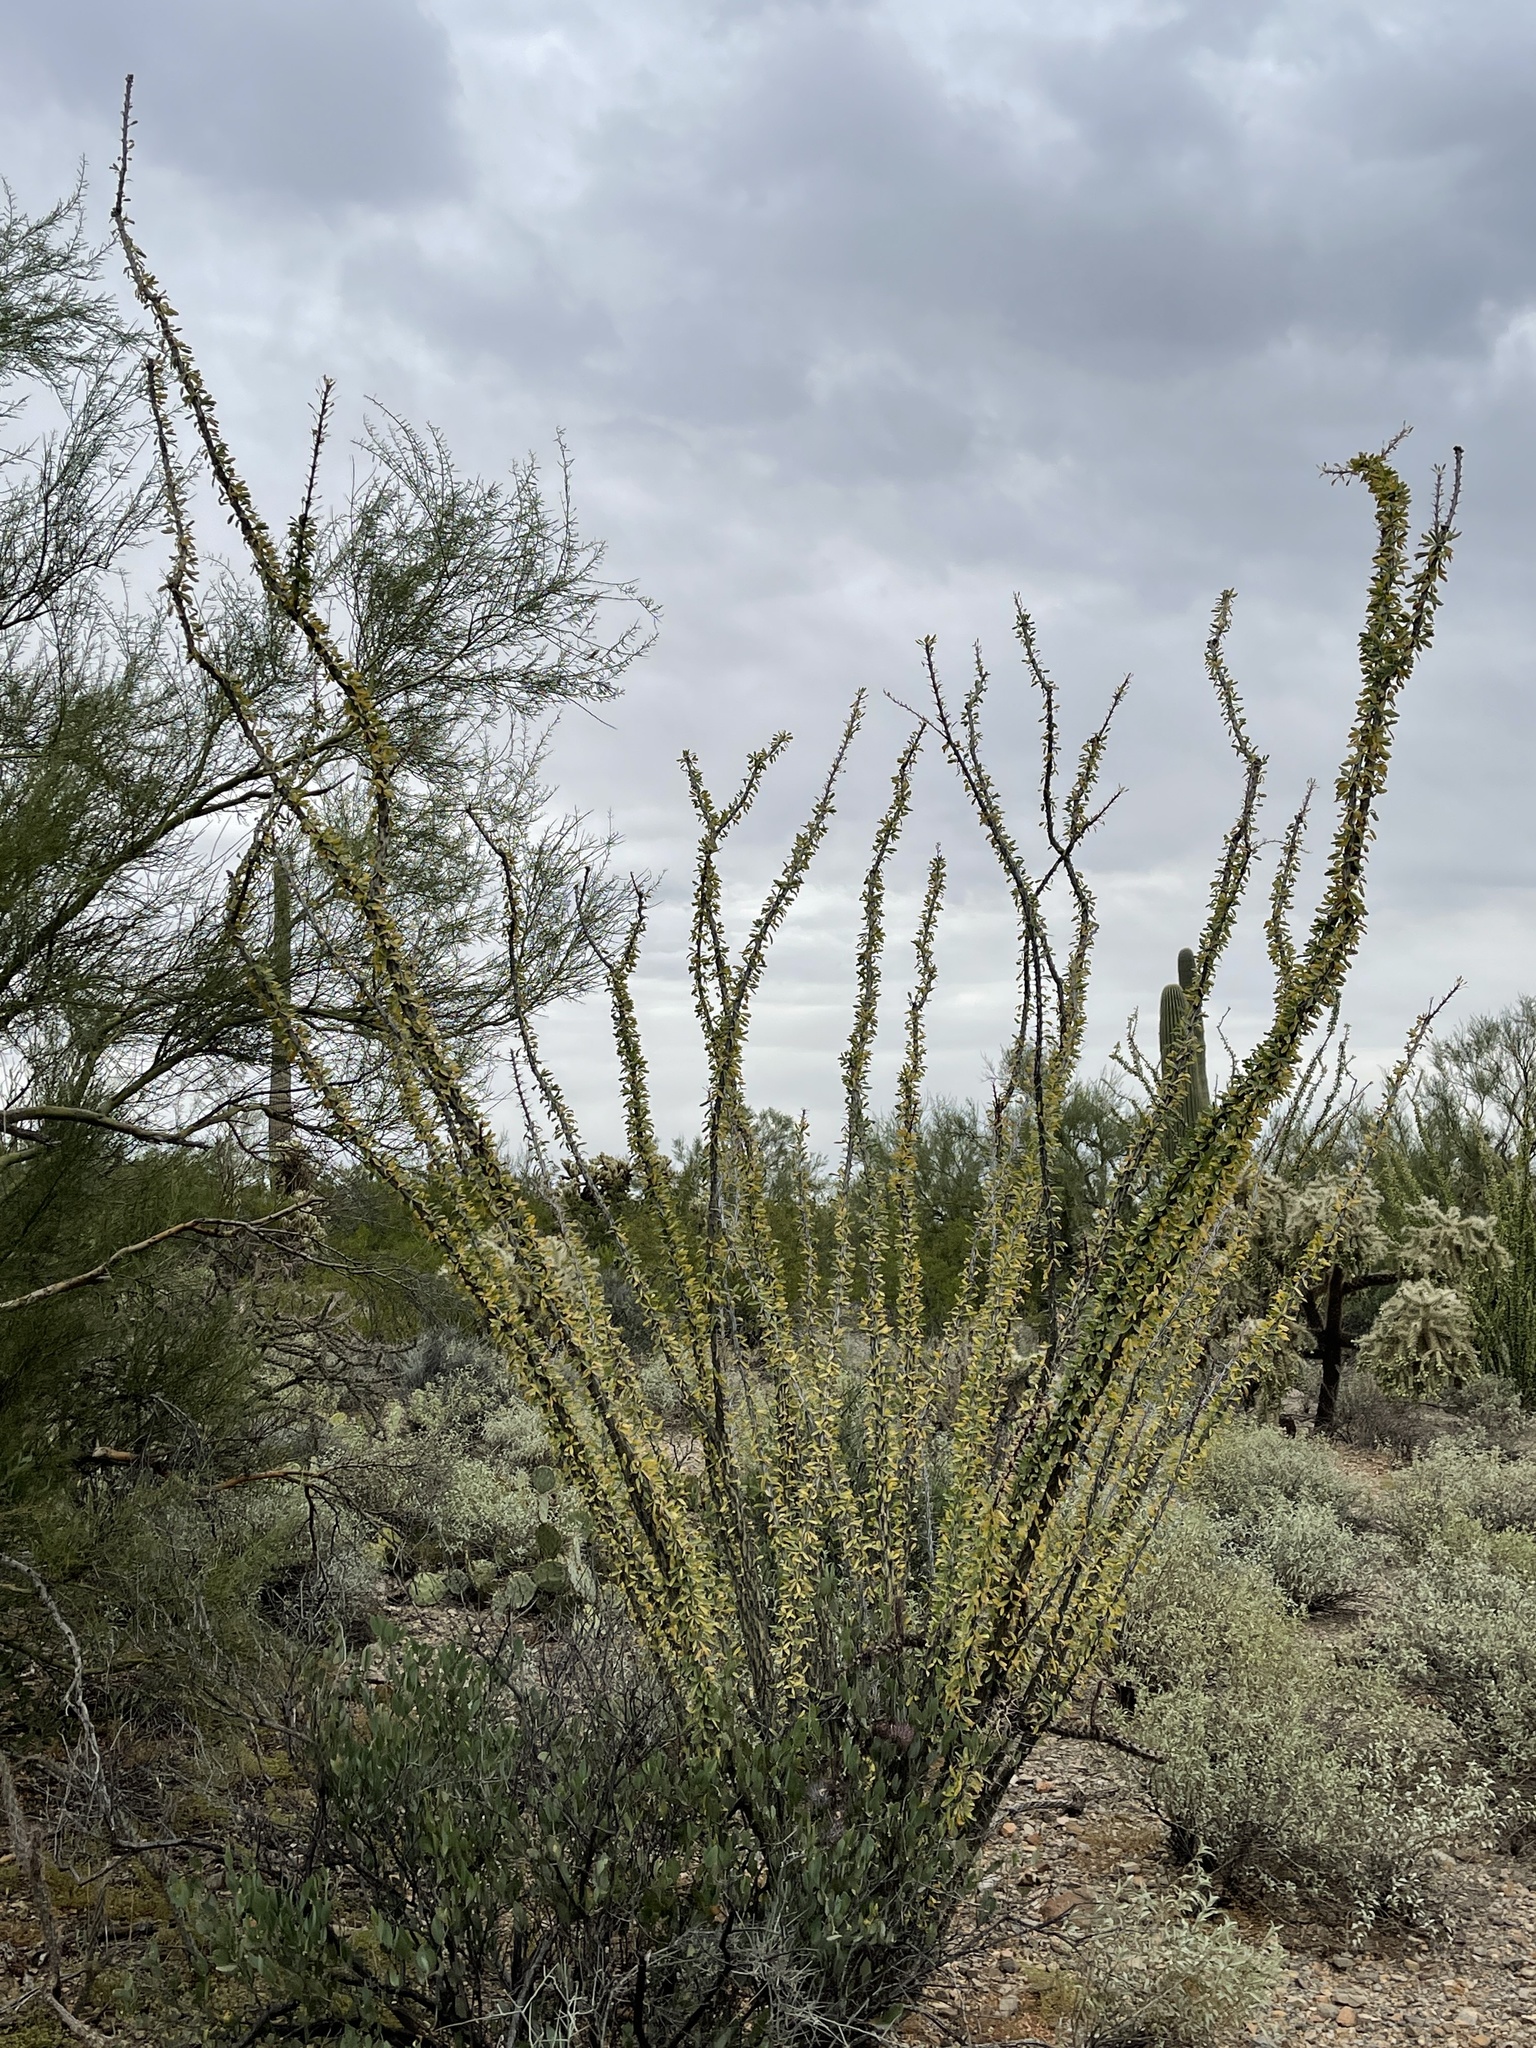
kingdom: Plantae
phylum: Tracheophyta
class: Magnoliopsida
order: Ericales
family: Fouquieriaceae
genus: Fouquieria
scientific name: Fouquieria splendens
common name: Vine-cactus
